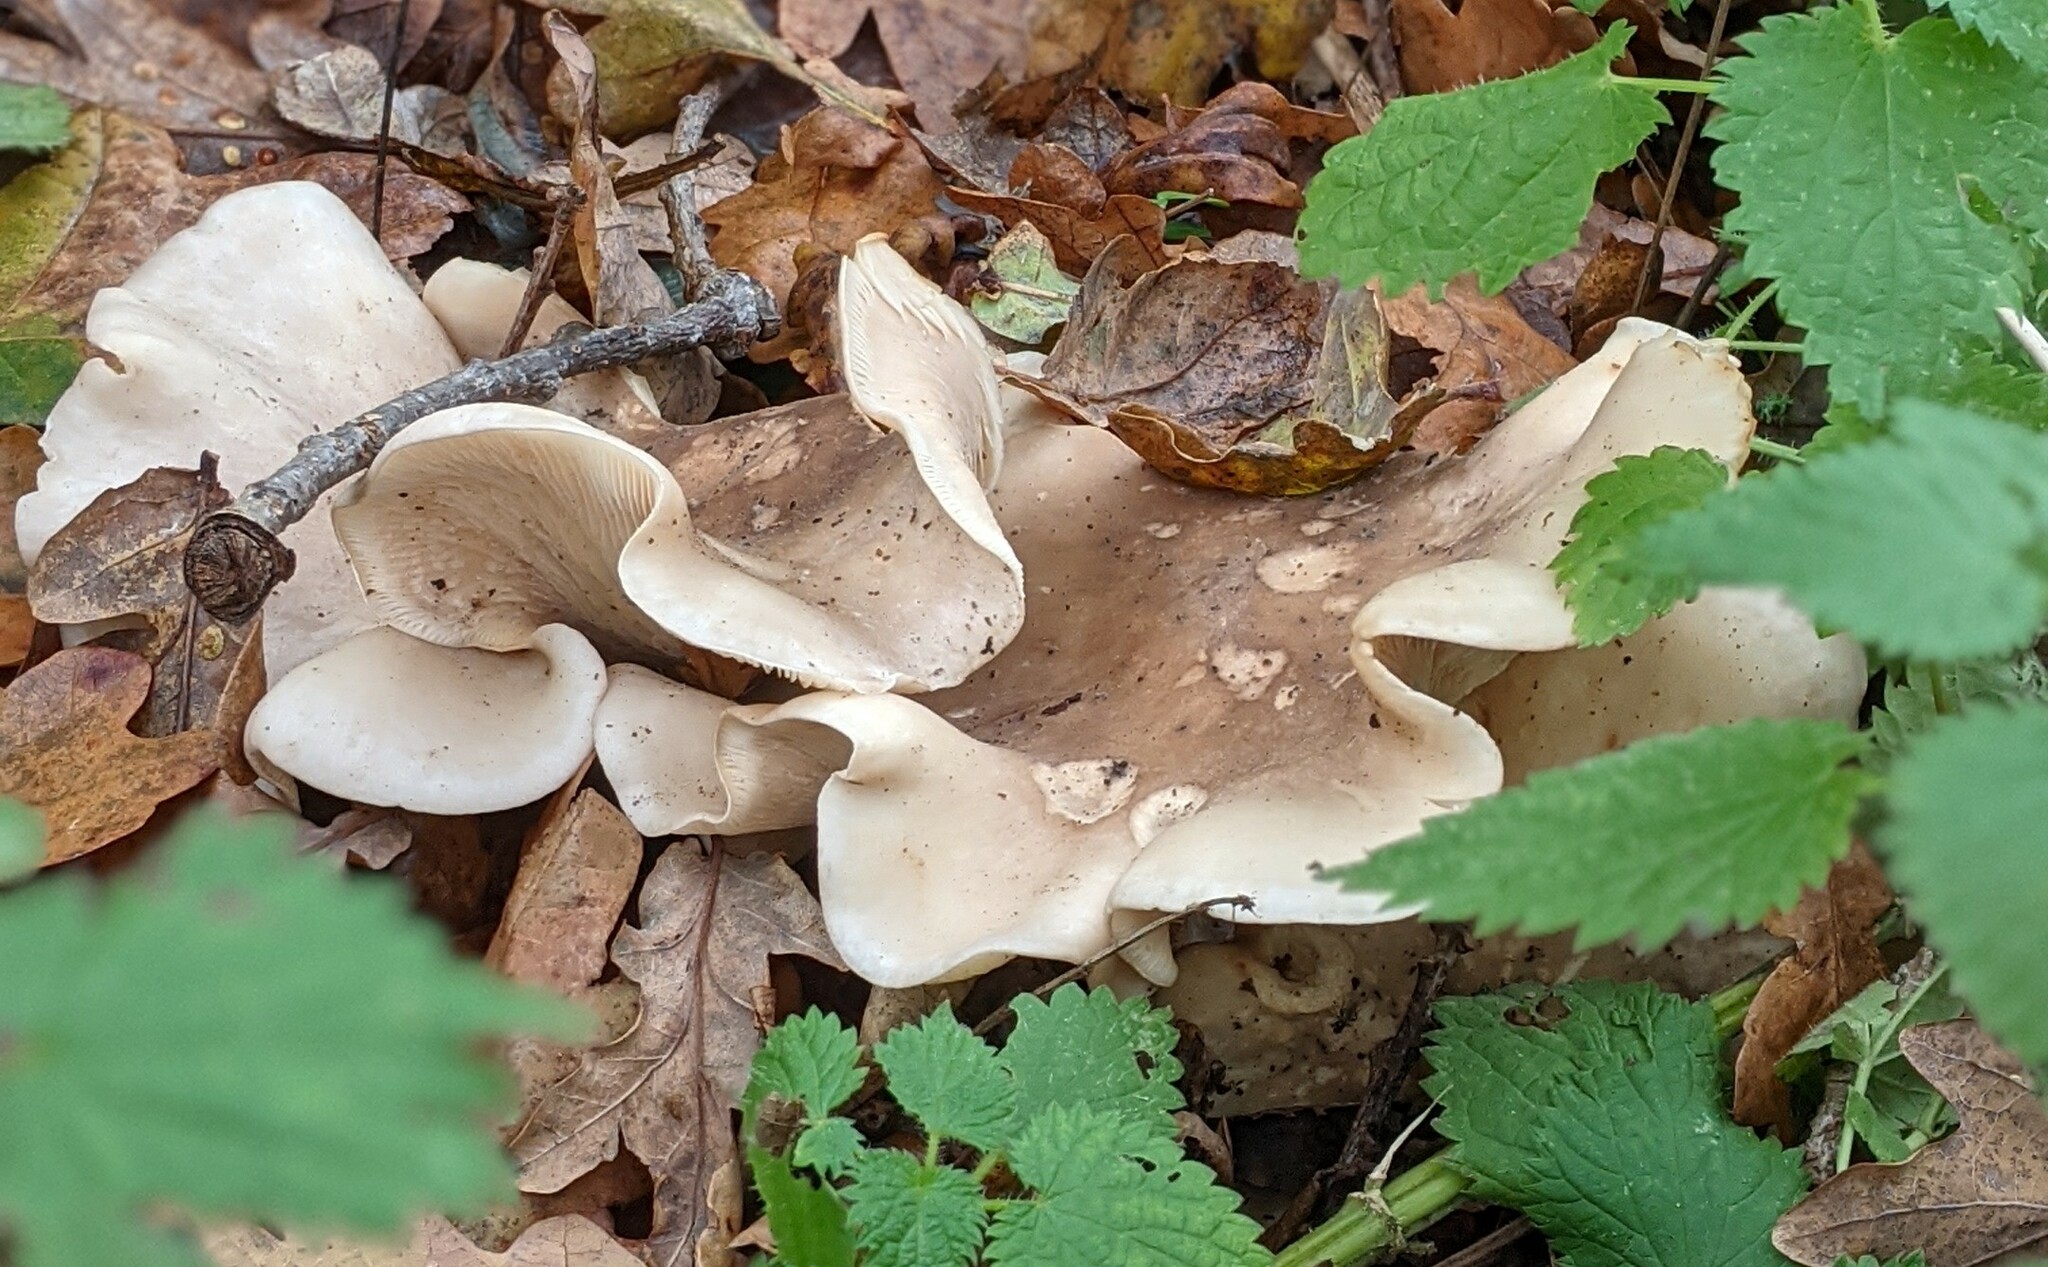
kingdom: Fungi
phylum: Basidiomycota
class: Agaricomycetes
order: Agaricales
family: Tricholomataceae
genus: Clitocybe
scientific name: Clitocybe nebularis
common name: Clouded agaric
